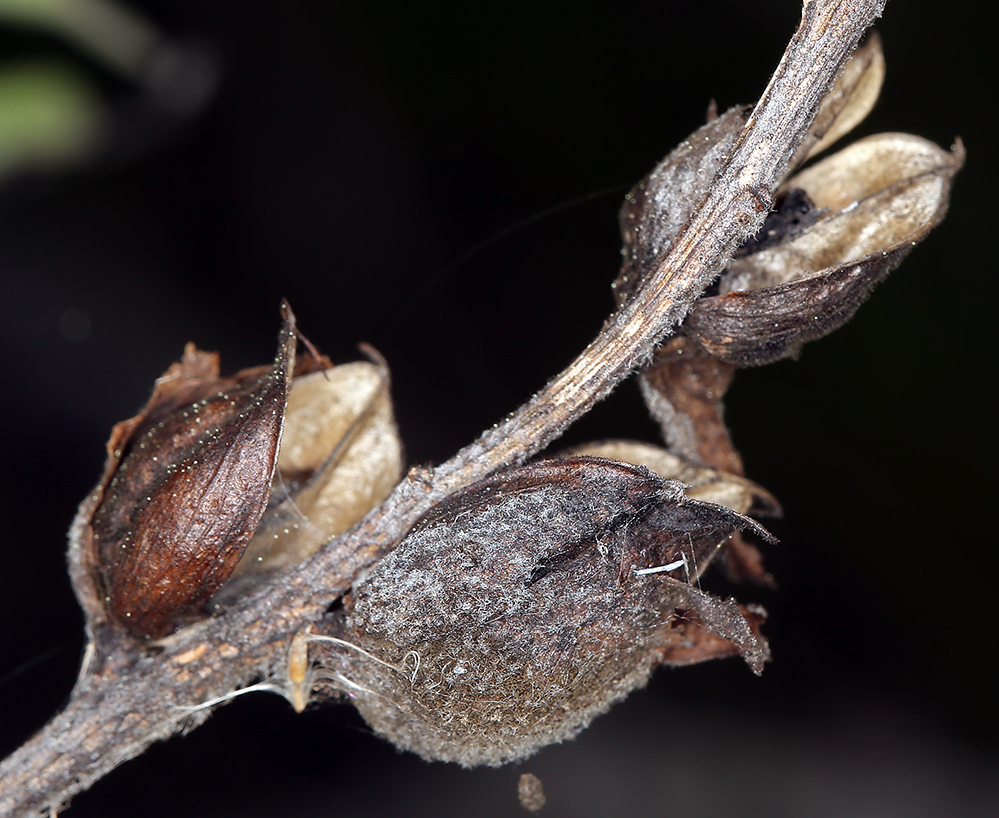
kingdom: Plantae
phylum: Tracheophyta
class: Magnoliopsida
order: Lamiales
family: Orobanchaceae
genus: Castilleja
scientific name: Castilleja foliolosa
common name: Woolly indian paintbrush
